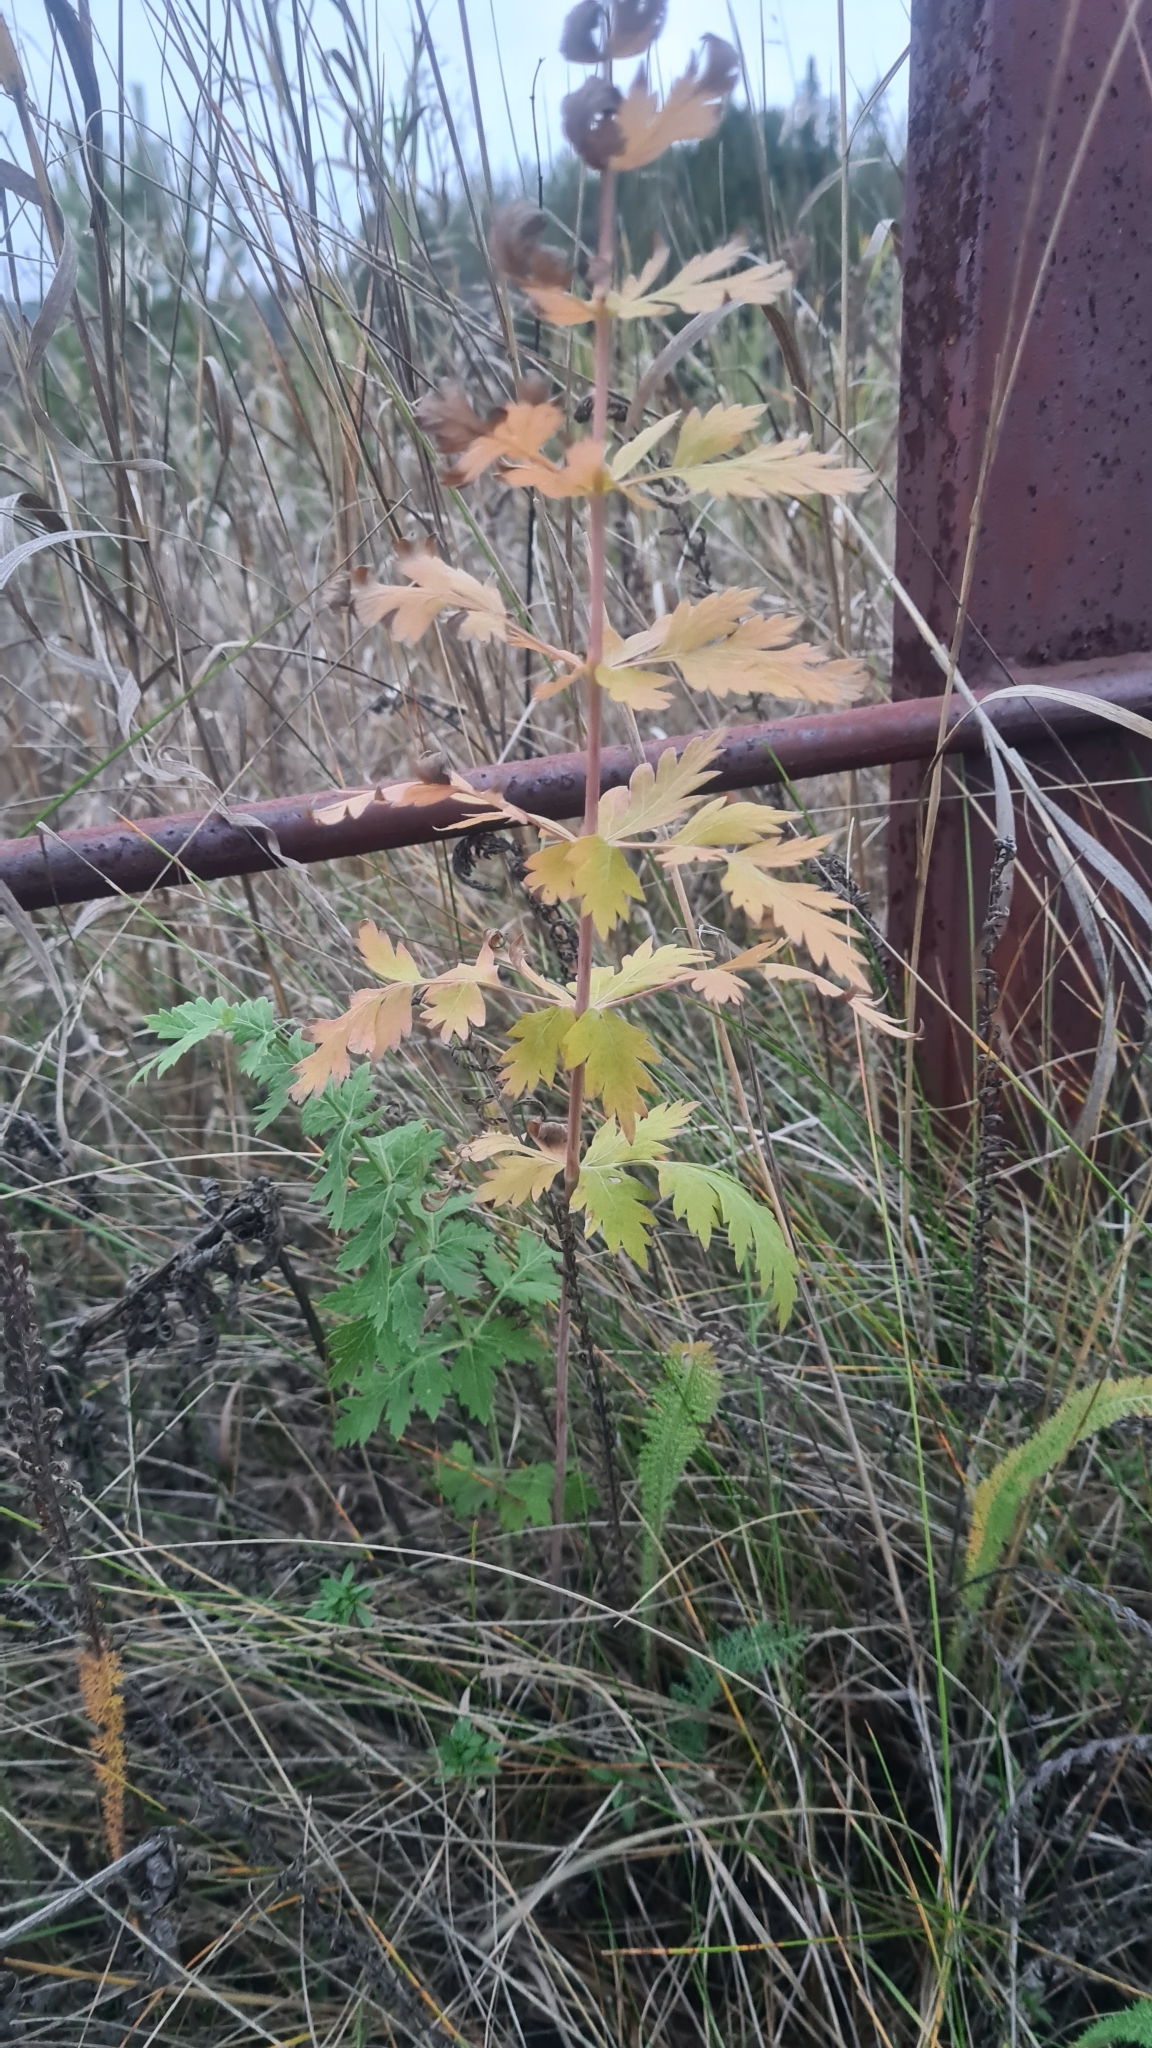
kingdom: Plantae
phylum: Tracheophyta
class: Magnoliopsida
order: Apiales
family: Apiaceae
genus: Seseli
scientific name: Seseli libanotis
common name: Mooncarrot
